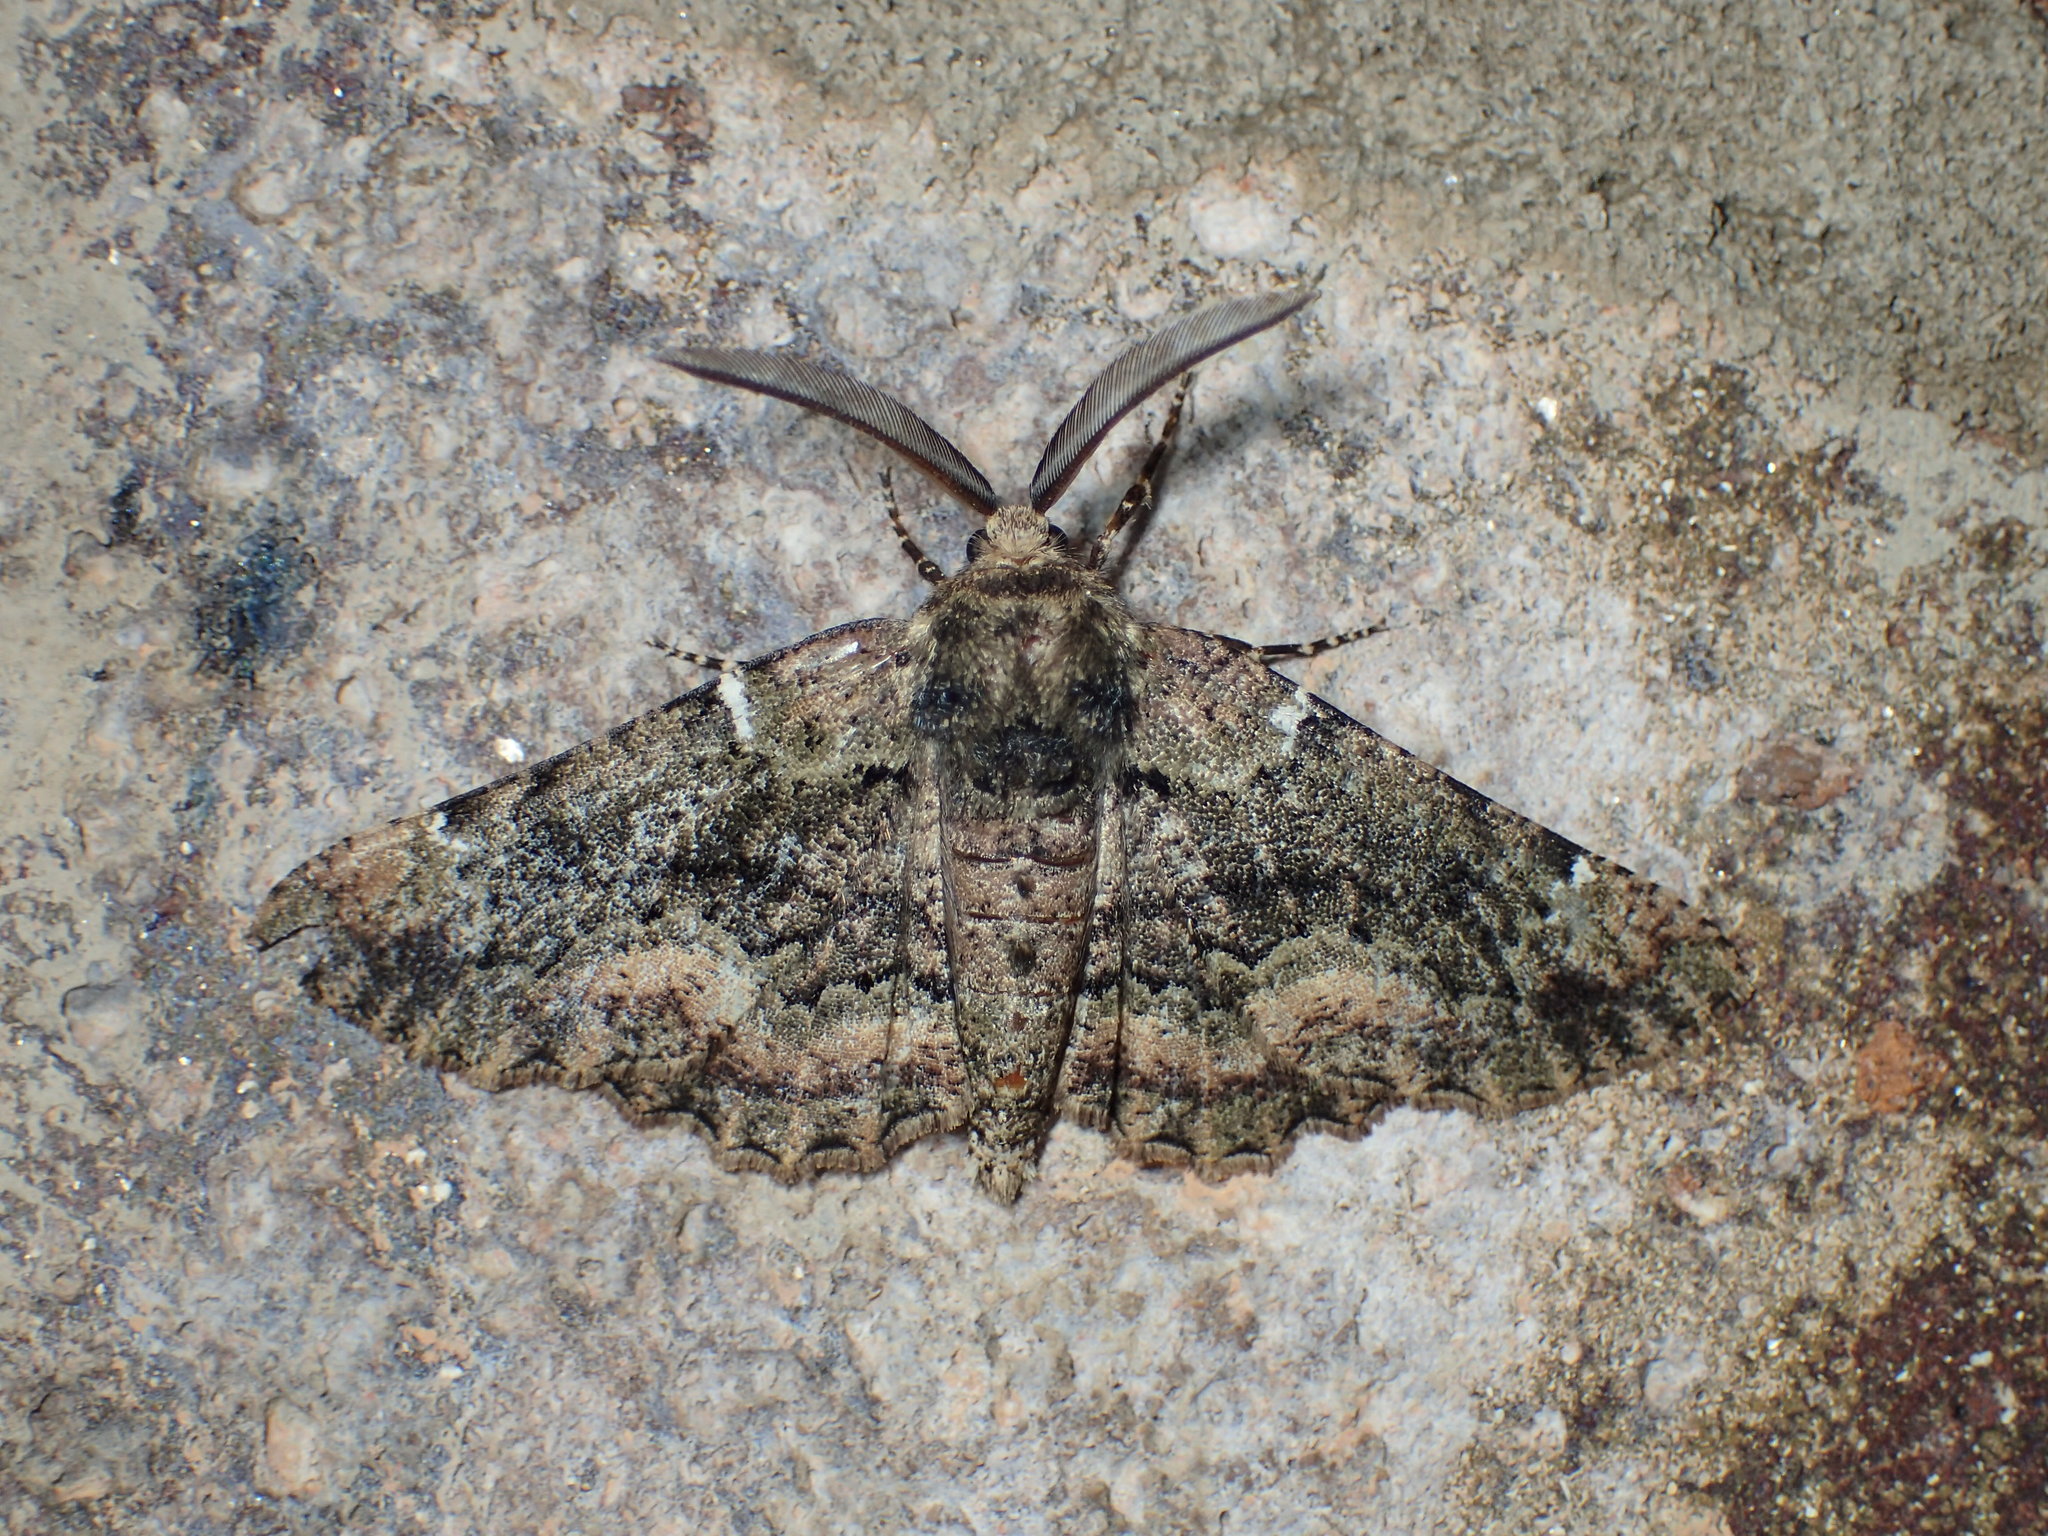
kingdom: Animalia
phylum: Arthropoda
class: Insecta
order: Lepidoptera
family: Geometridae
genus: Phaeoura
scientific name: Phaeoura quernaria
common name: Oak beauty
